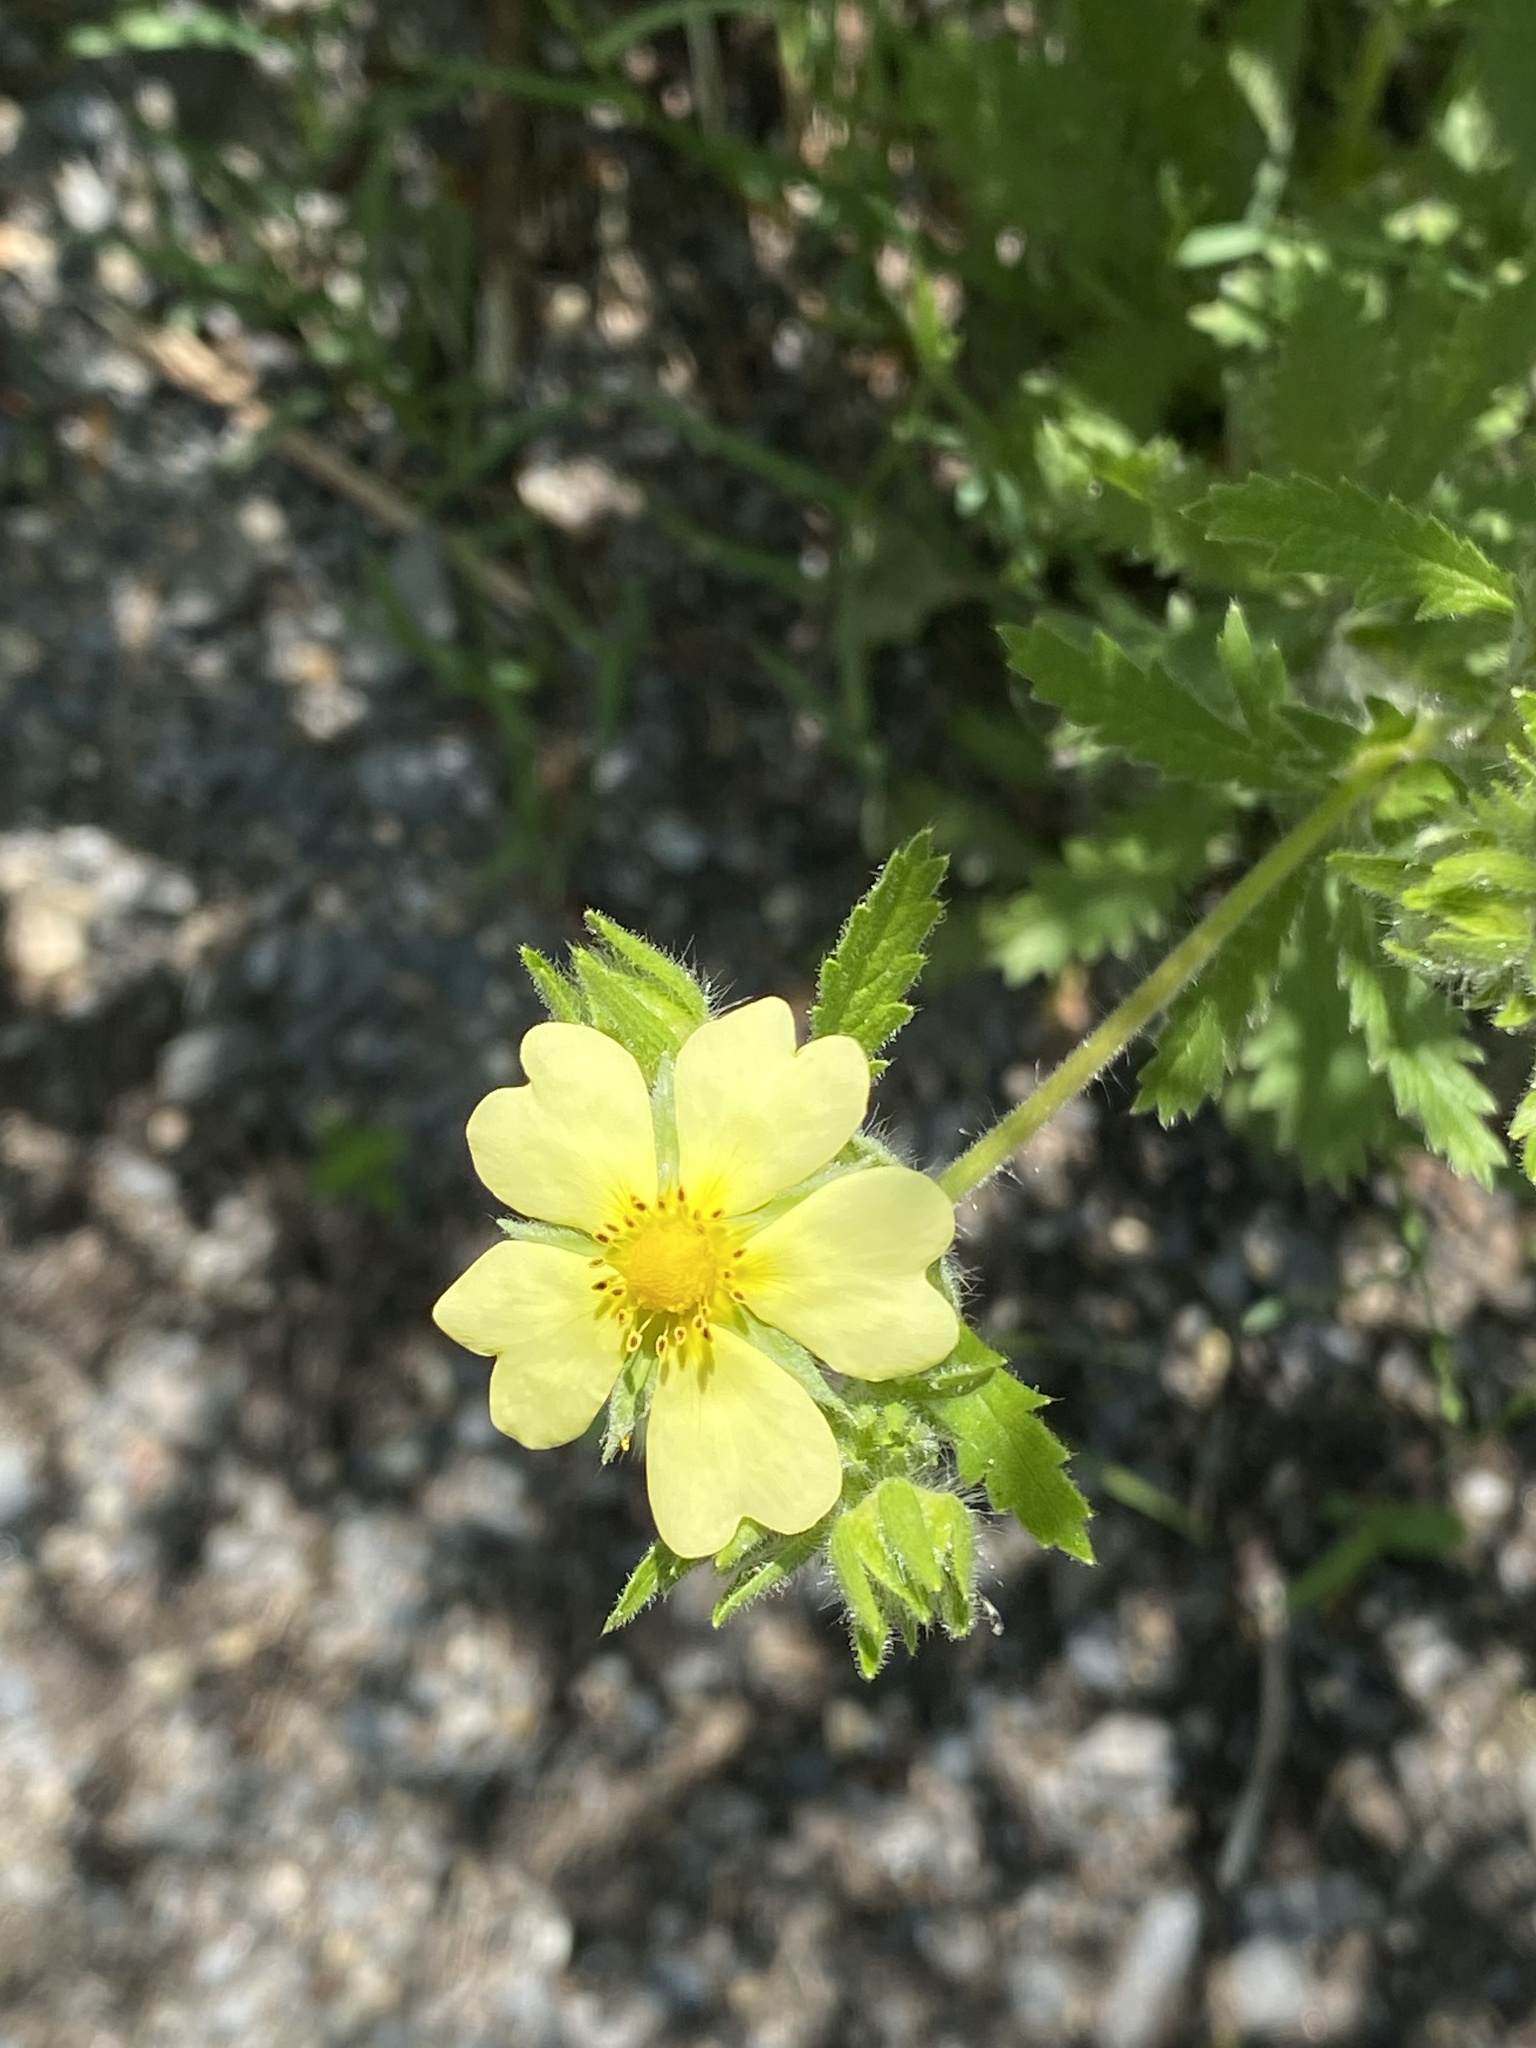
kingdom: Plantae
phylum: Tracheophyta
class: Magnoliopsida
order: Rosales
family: Rosaceae
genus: Potentilla
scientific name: Potentilla recta
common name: Sulphur cinquefoil
